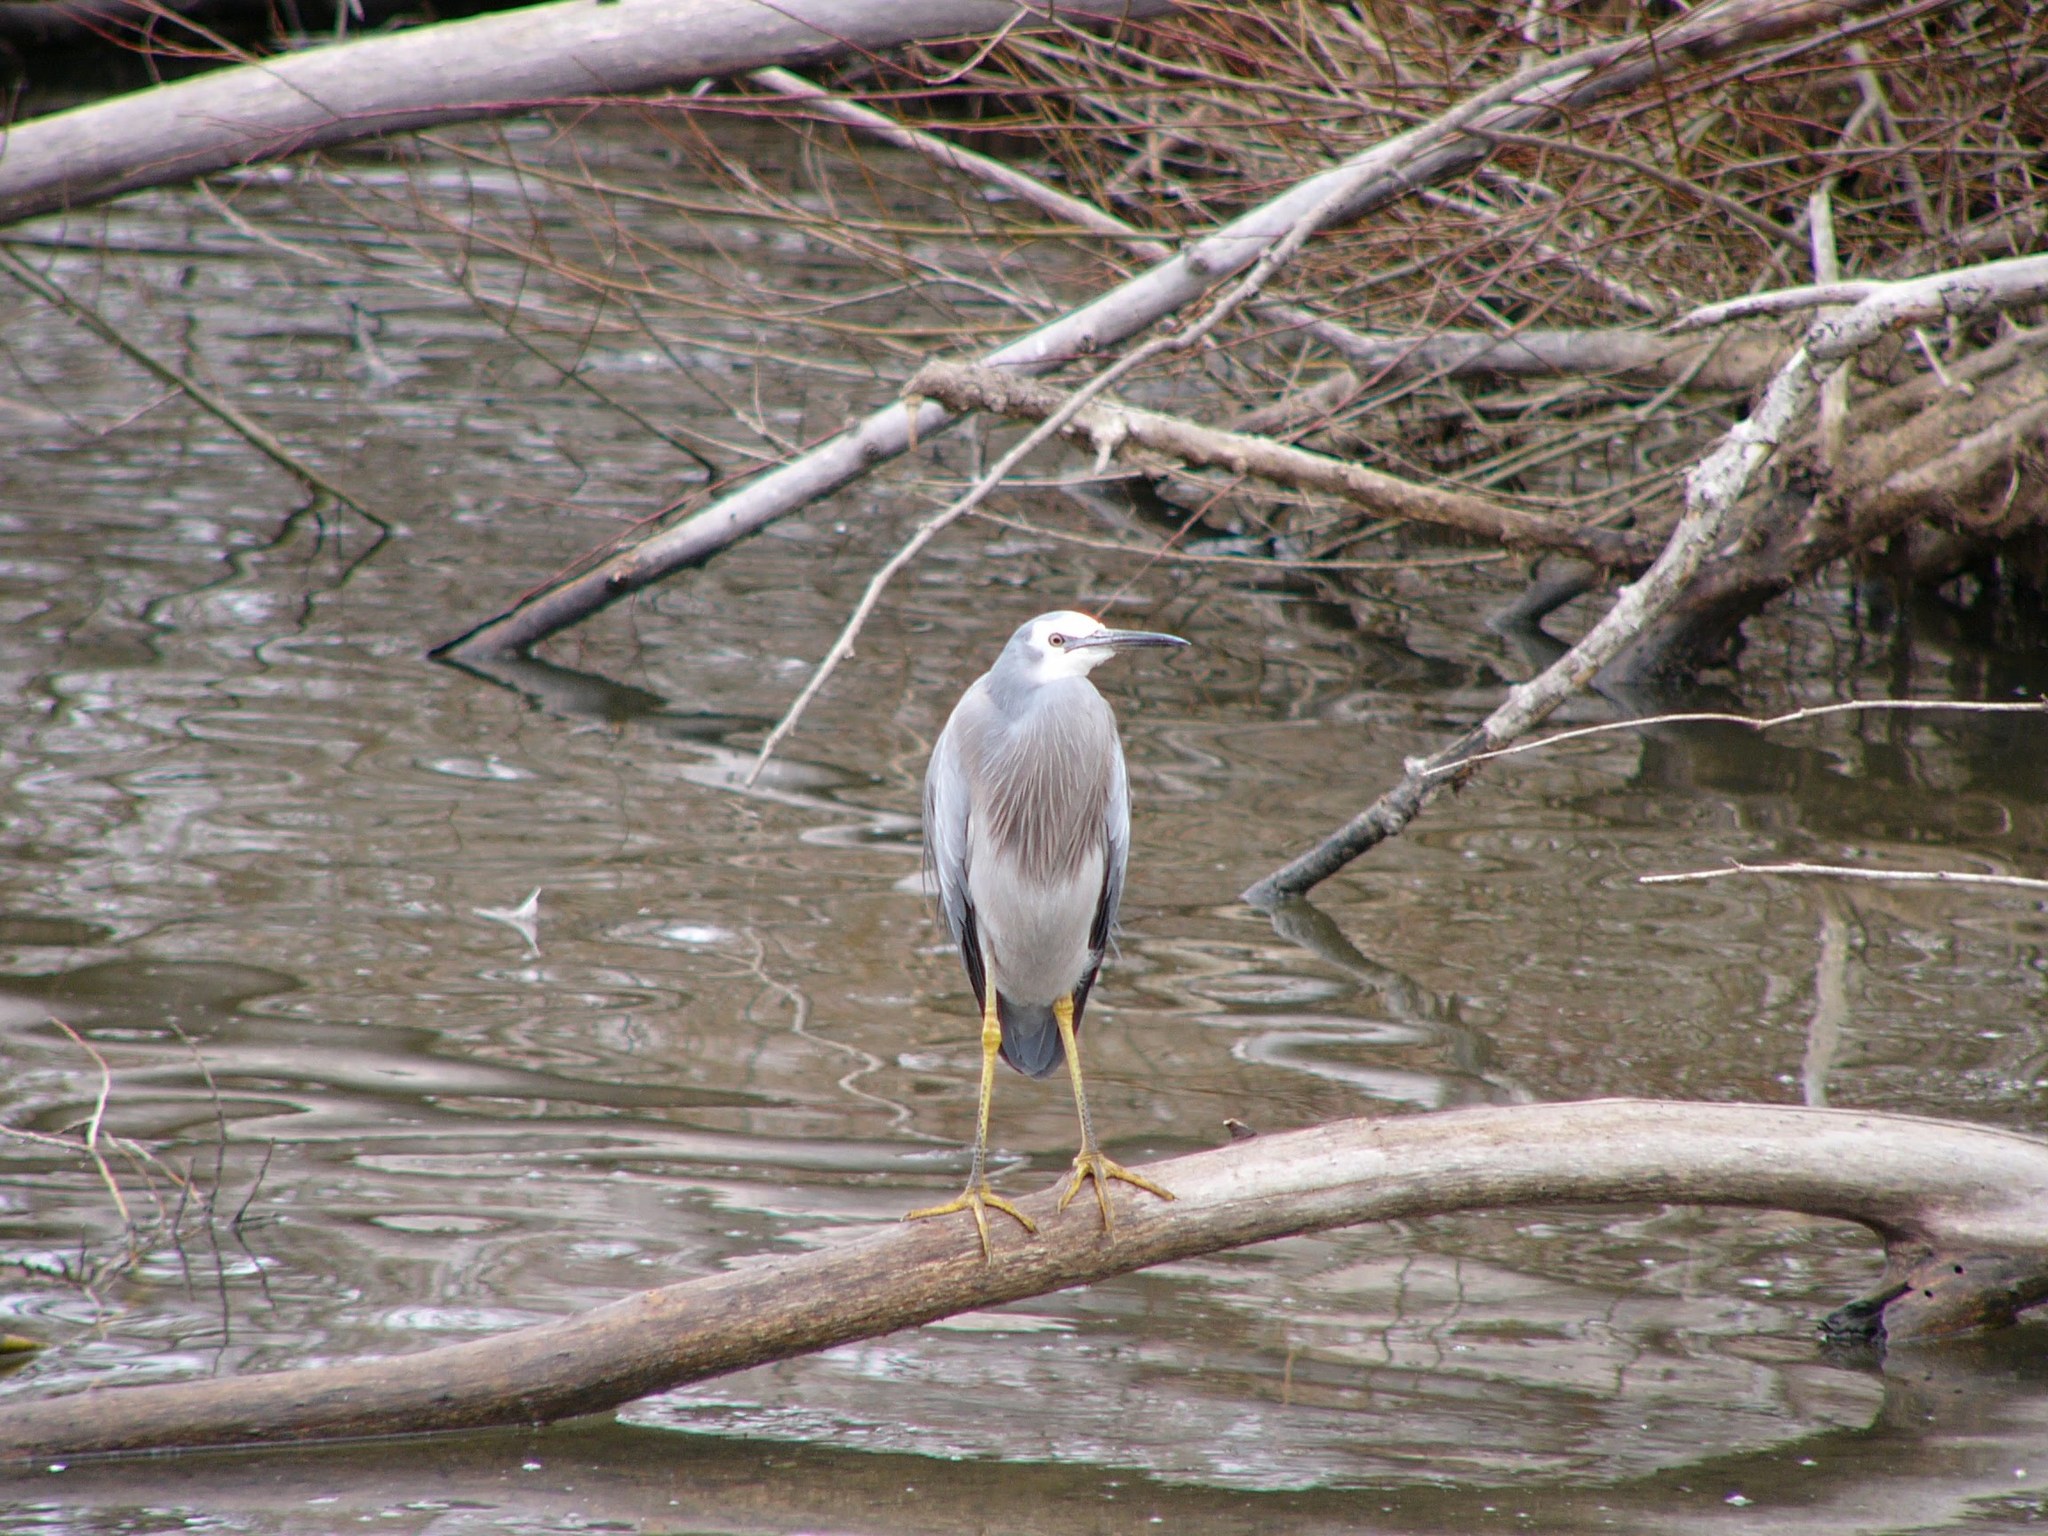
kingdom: Animalia
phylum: Chordata
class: Aves
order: Pelecaniformes
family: Ardeidae
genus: Egretta
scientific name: Egretta novaehollandiae
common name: White-faced heron
